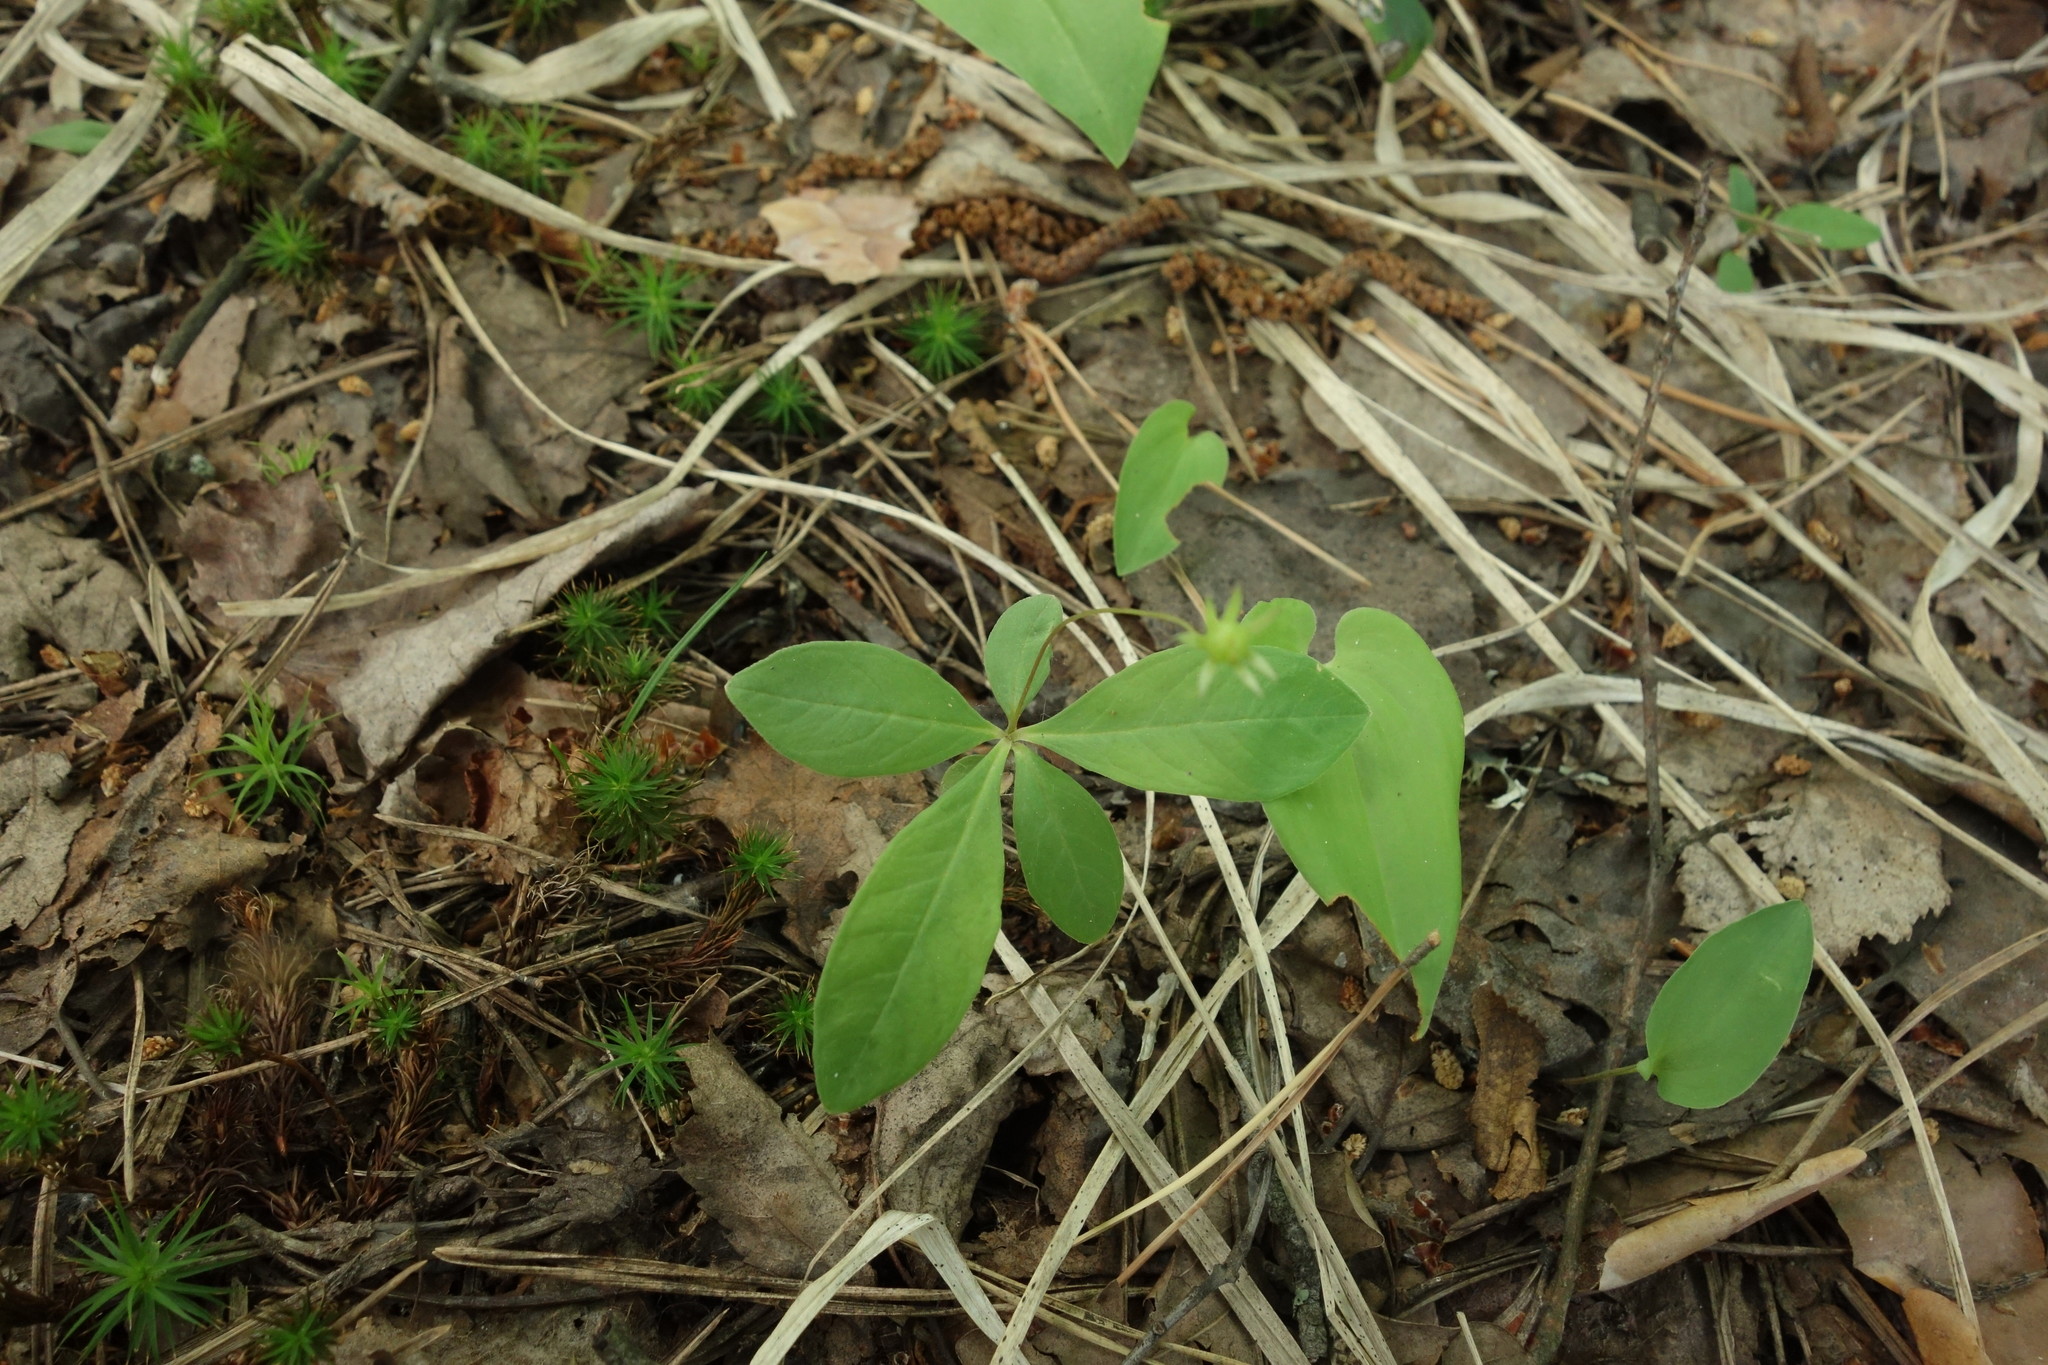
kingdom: Plantae
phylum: Tracheophyta
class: Magnoliopsida
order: Ericales
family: Primulaceae
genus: Lysimachia
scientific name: Lysimachia europaea
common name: Arctic starflower
